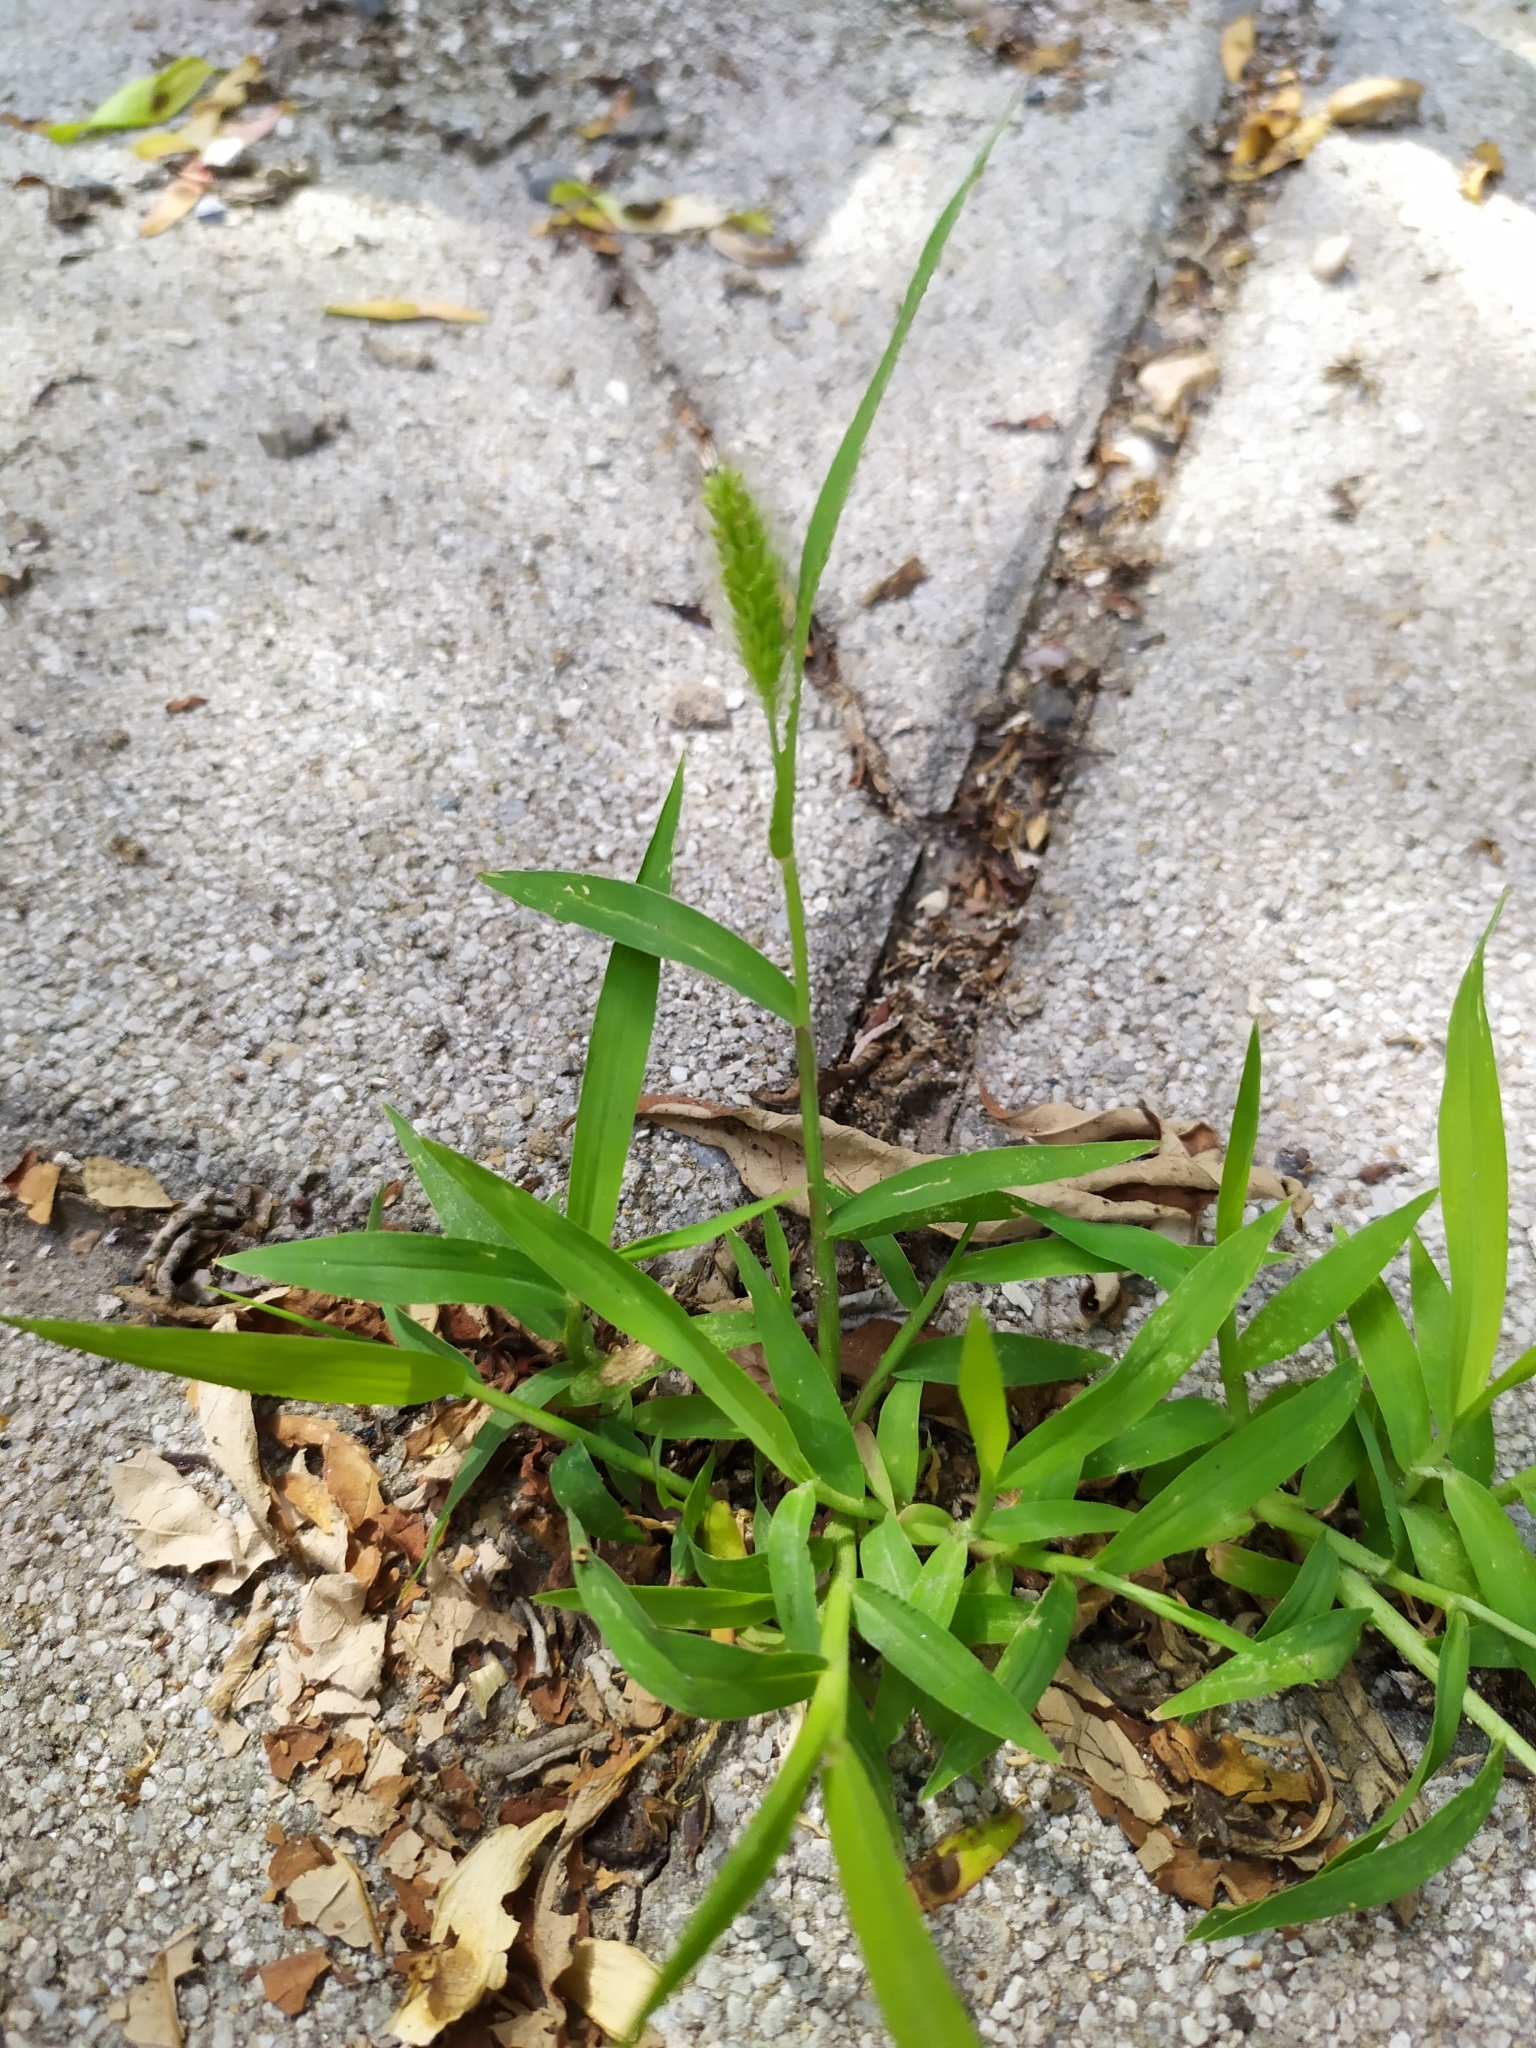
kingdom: Plantae
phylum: Tracheophyta
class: Liliopsida
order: Poales
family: Poaceae
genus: Setaria
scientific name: Setaria viridis
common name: Green bristlegrass
